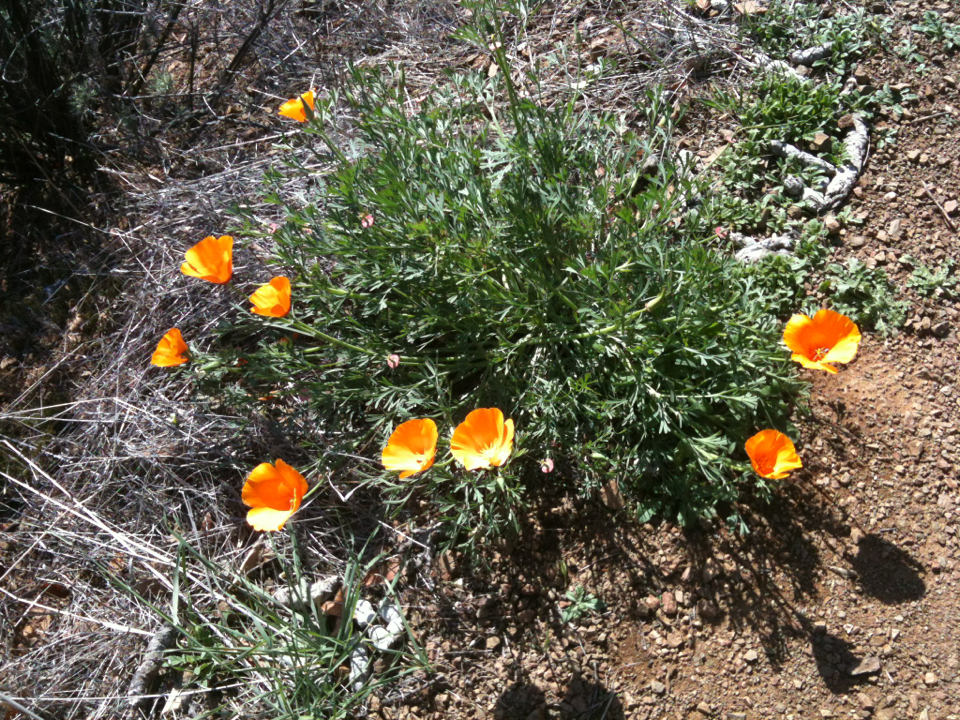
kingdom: Plantae
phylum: Tracheophyta
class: Magnoliopsida
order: Ranunculales
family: Papaveraceae
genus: Eschscholzia
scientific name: Eschscholzia californica
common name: California poppy
